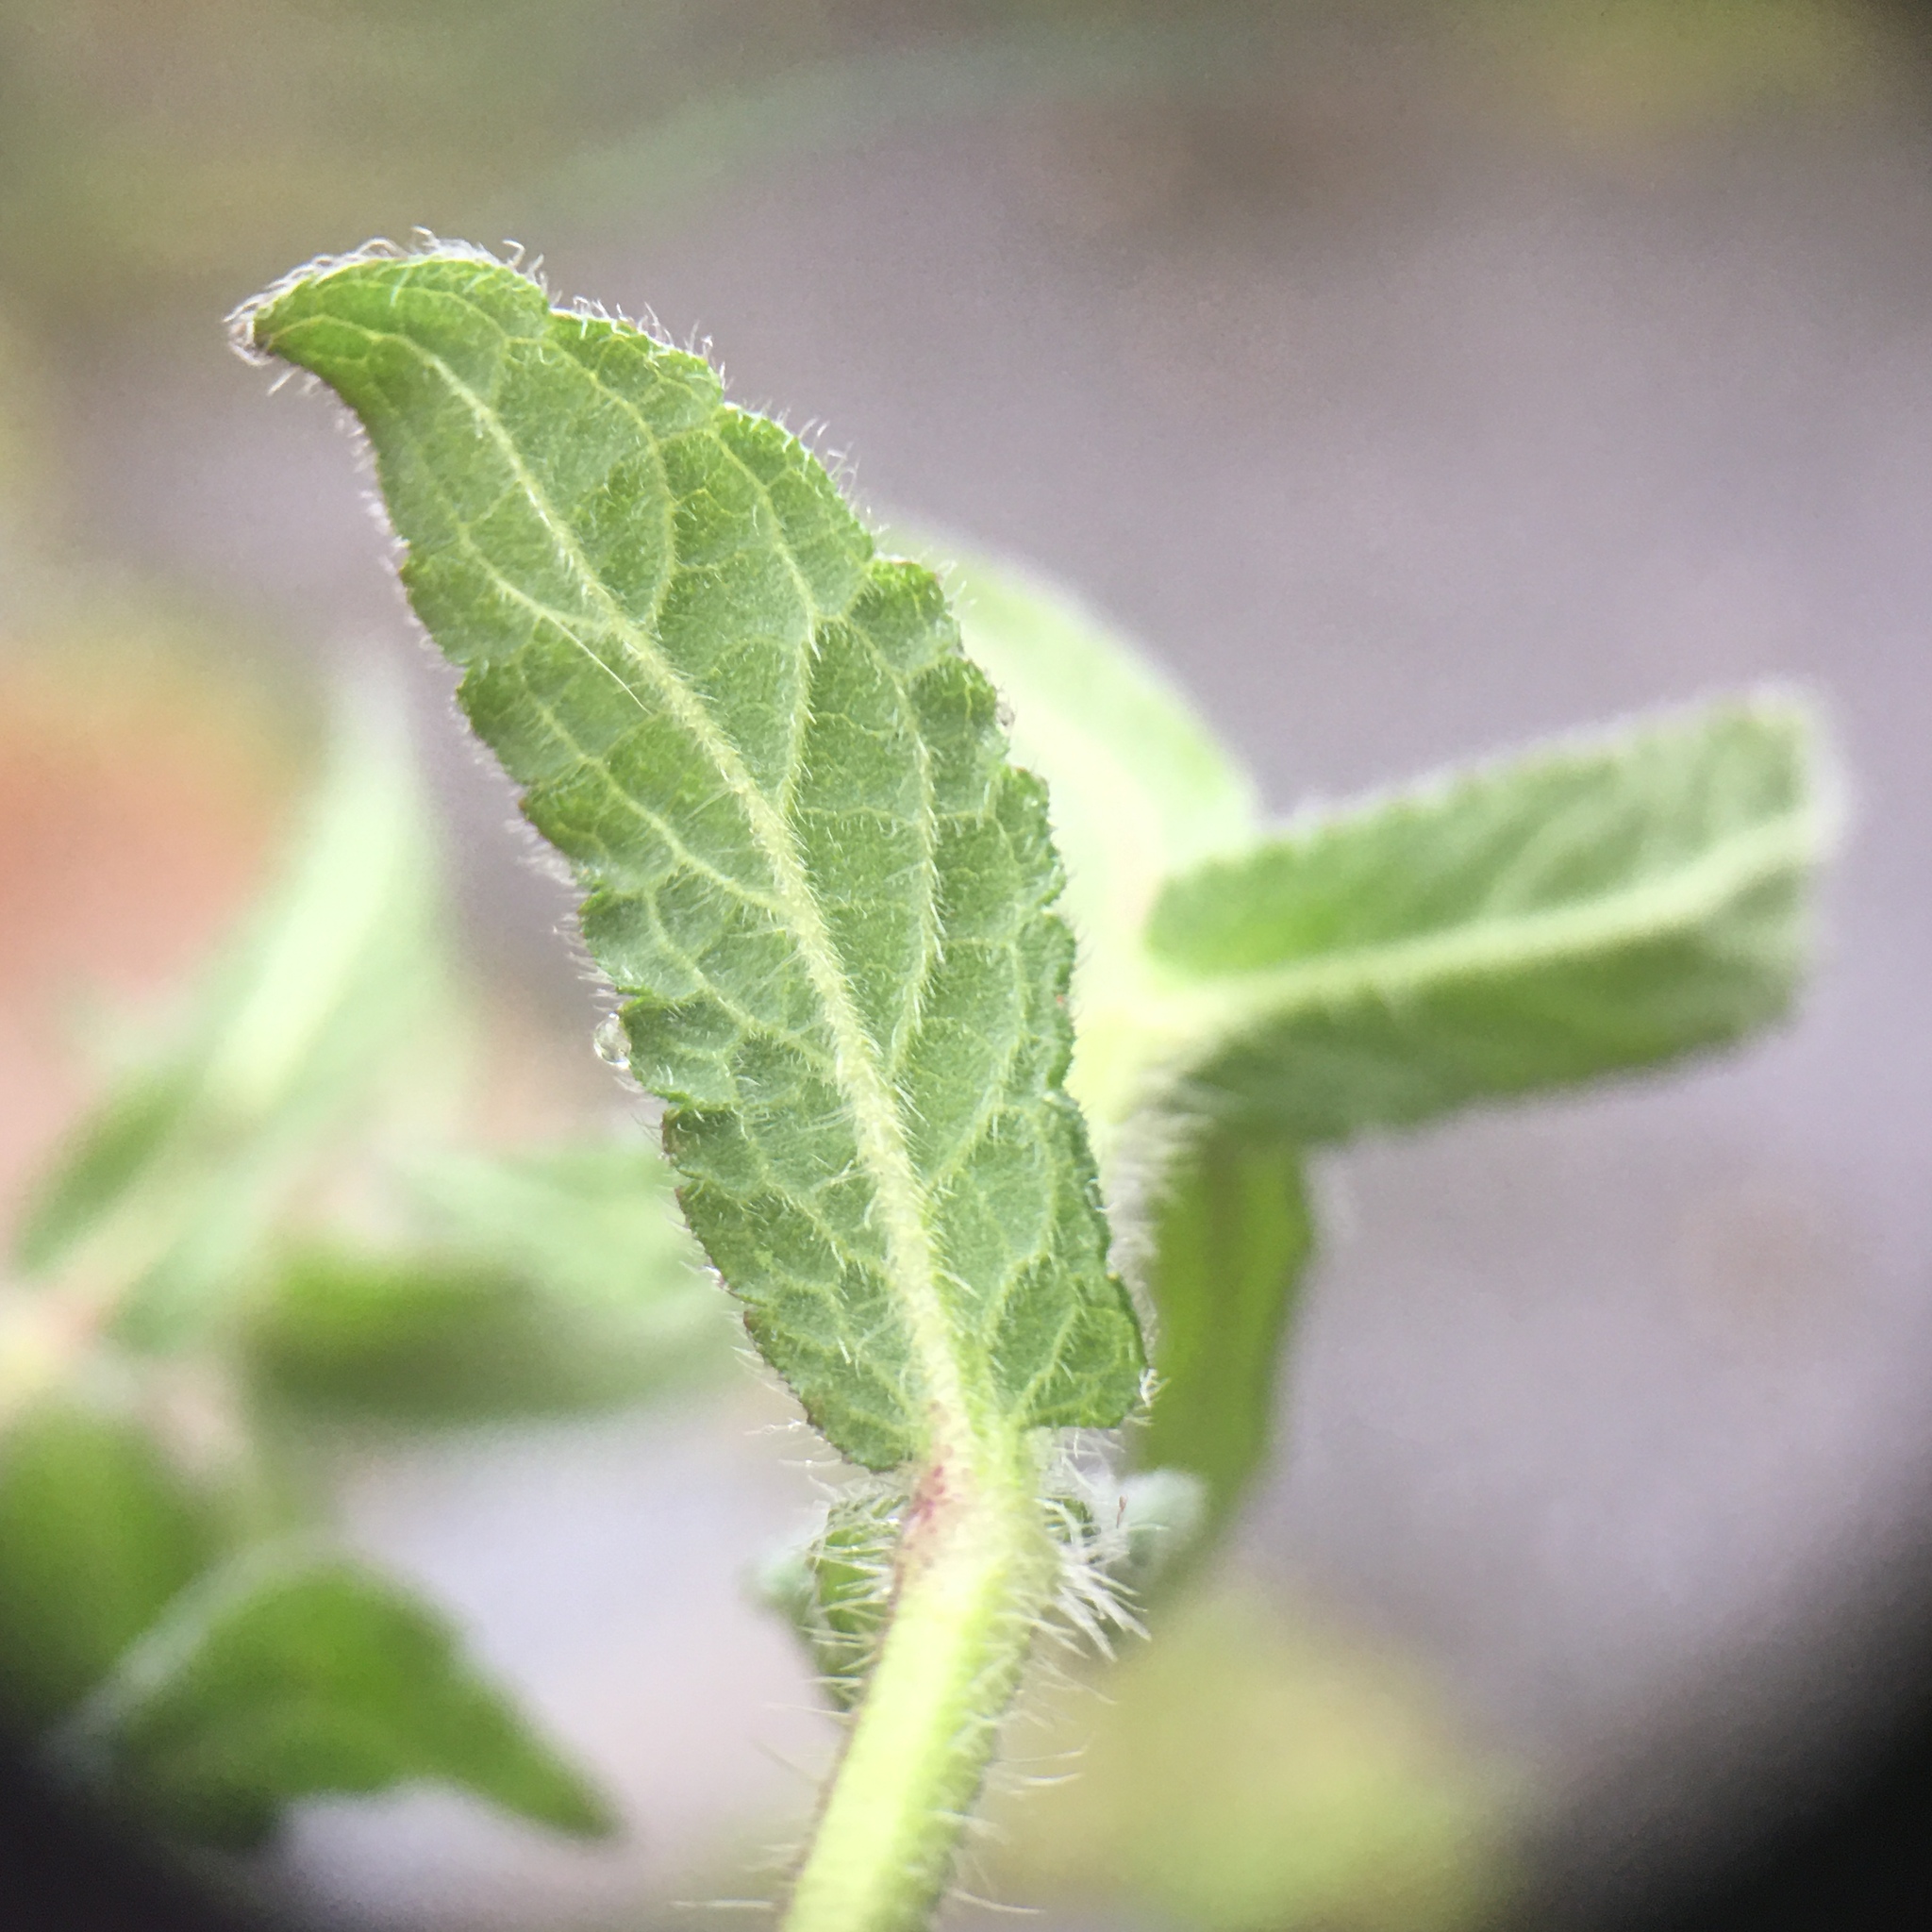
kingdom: Plantae
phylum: Tracheophyta
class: Magnoliopsida
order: Lamiales
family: Lamiaceae
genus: Stachys
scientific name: Stachys palustris
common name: Marsh woundwort
